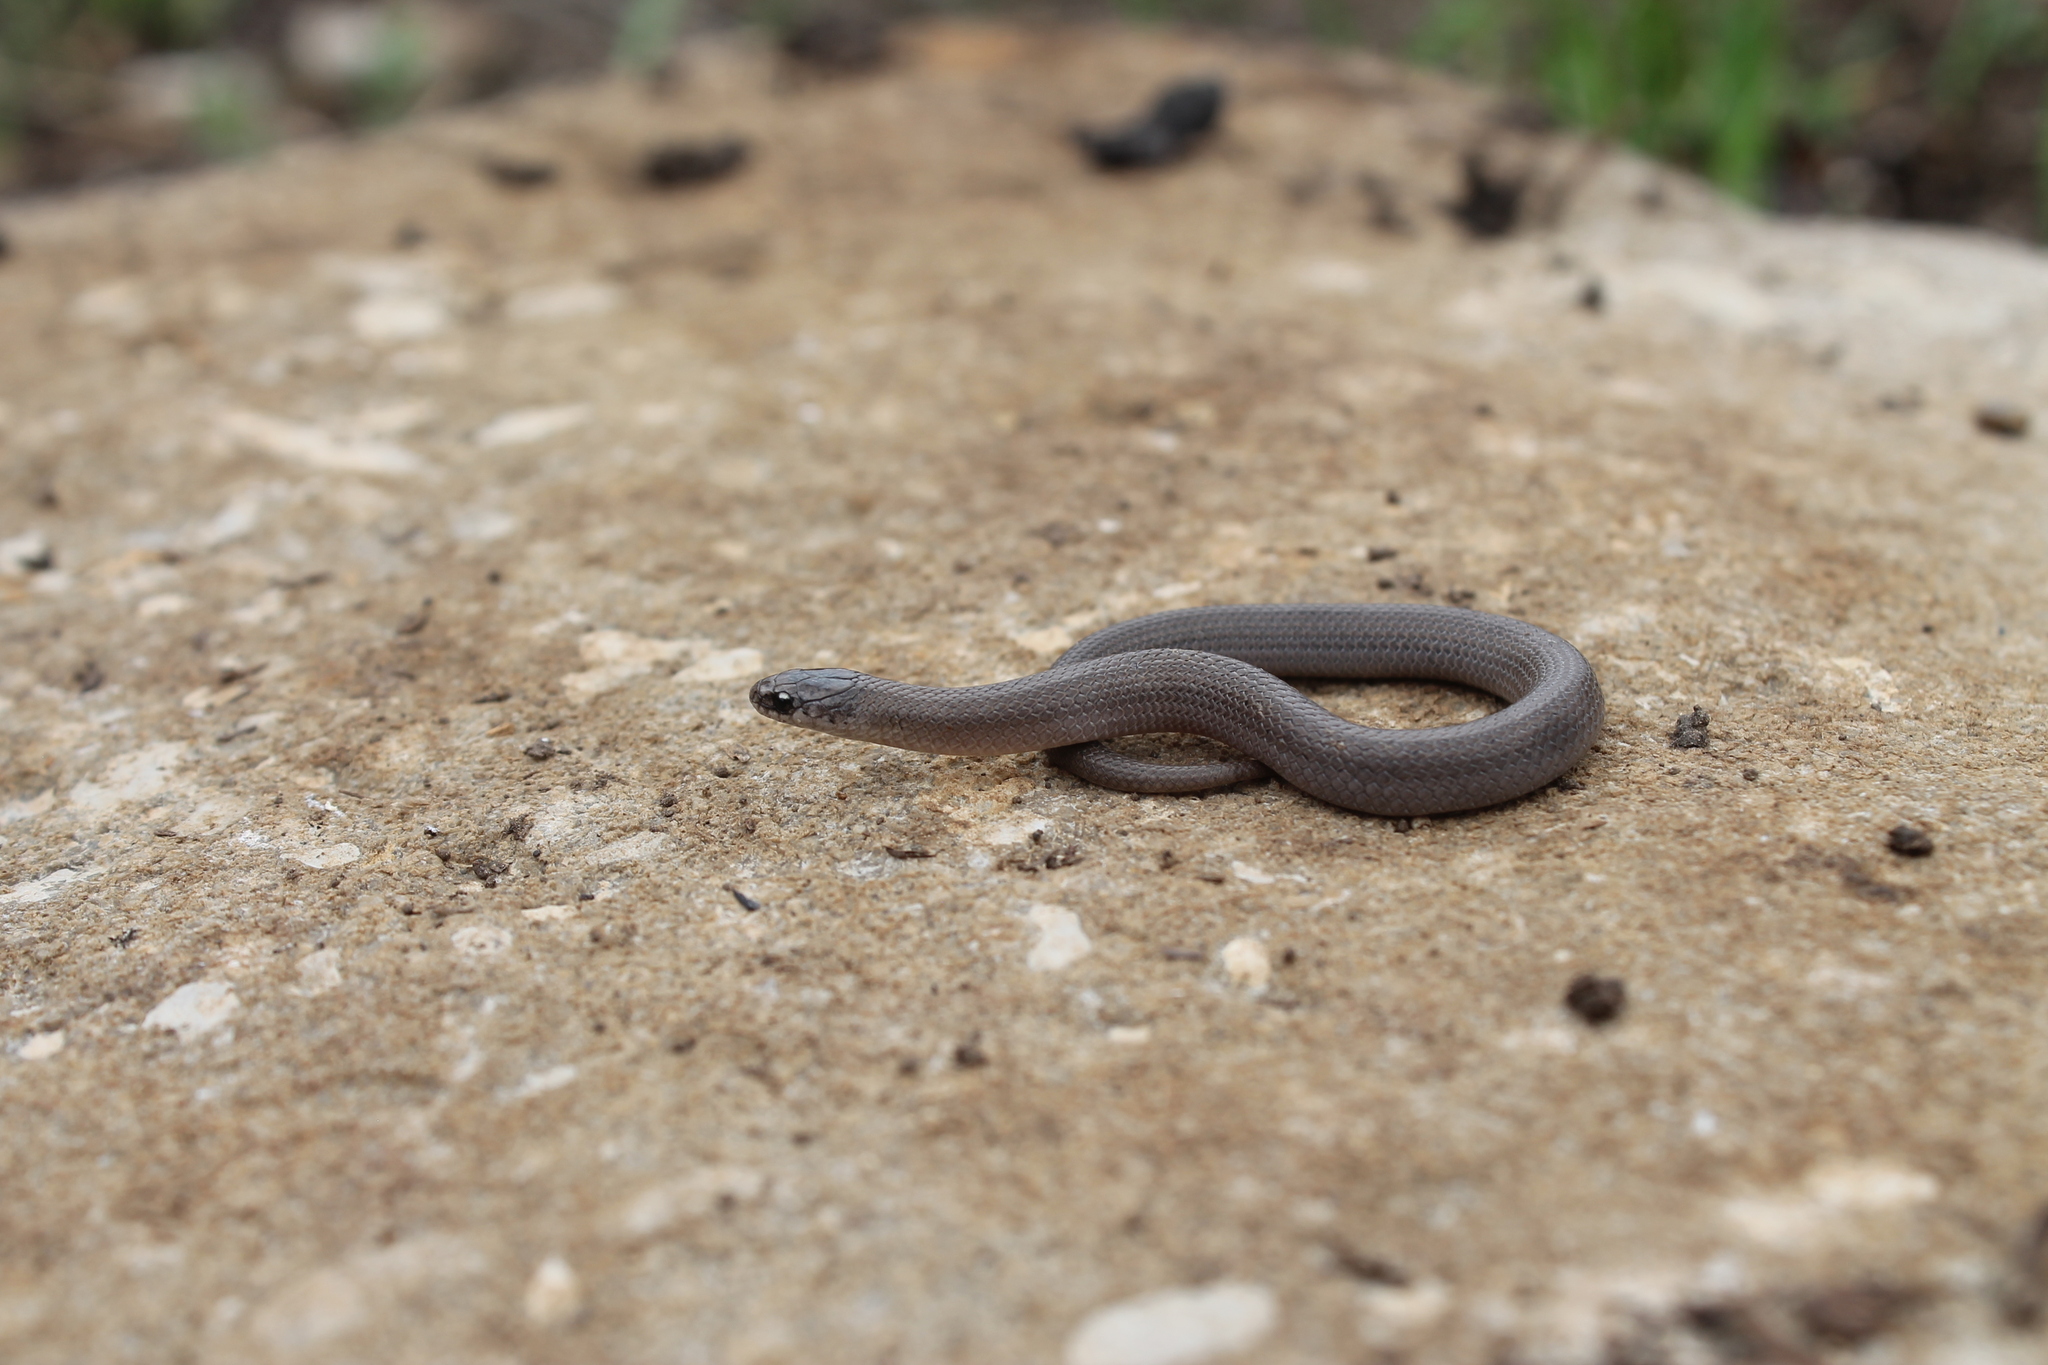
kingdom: Animalia
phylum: Chordata
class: Squamata
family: Colubridae
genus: Virginia
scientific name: Virginia valeriae
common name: Smooth earth snake
